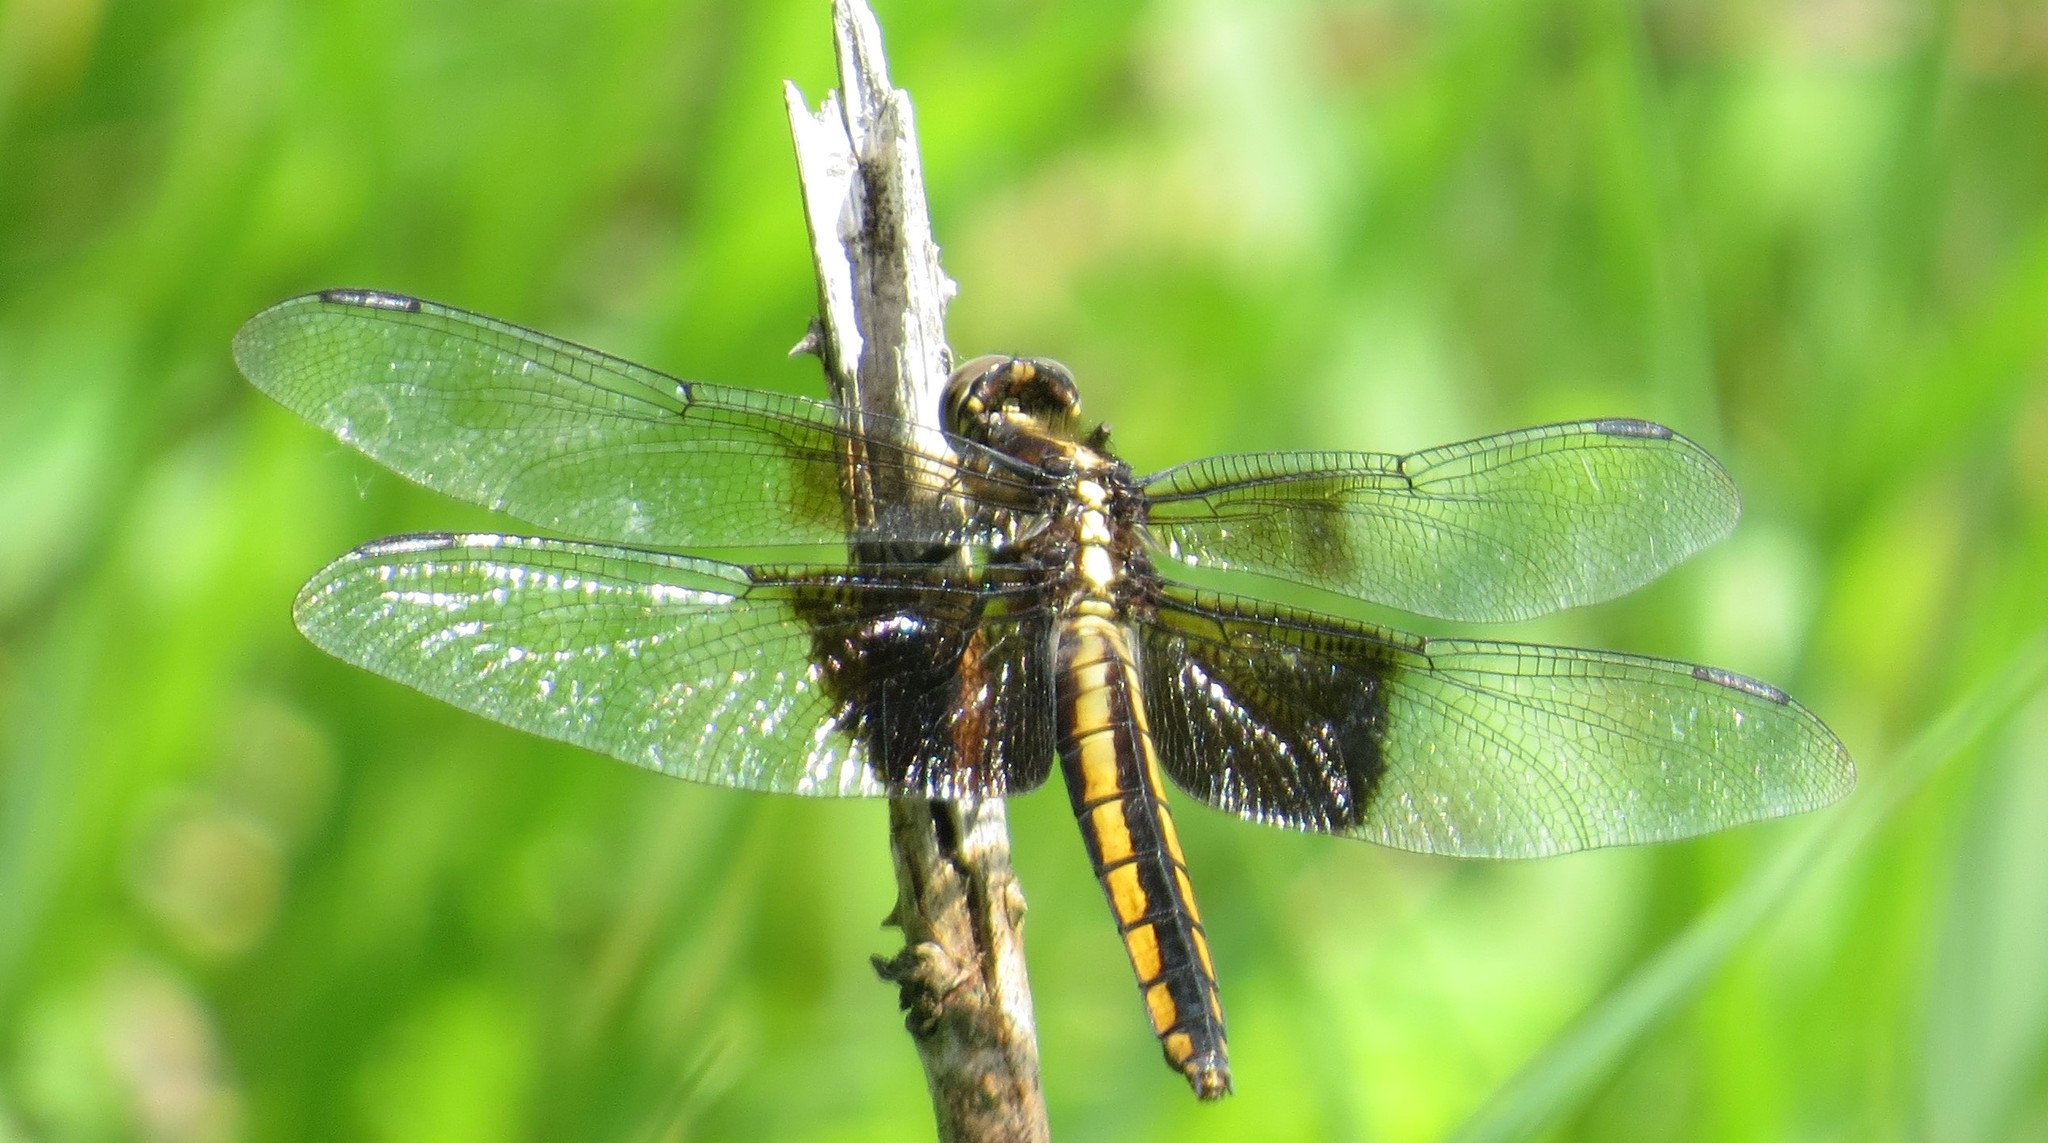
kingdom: Animalia
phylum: Arthropoda
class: Insecta
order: Odonata
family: Libellulidae
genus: Libellula
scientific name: Libellula luctuosa
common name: Widow skimmer
